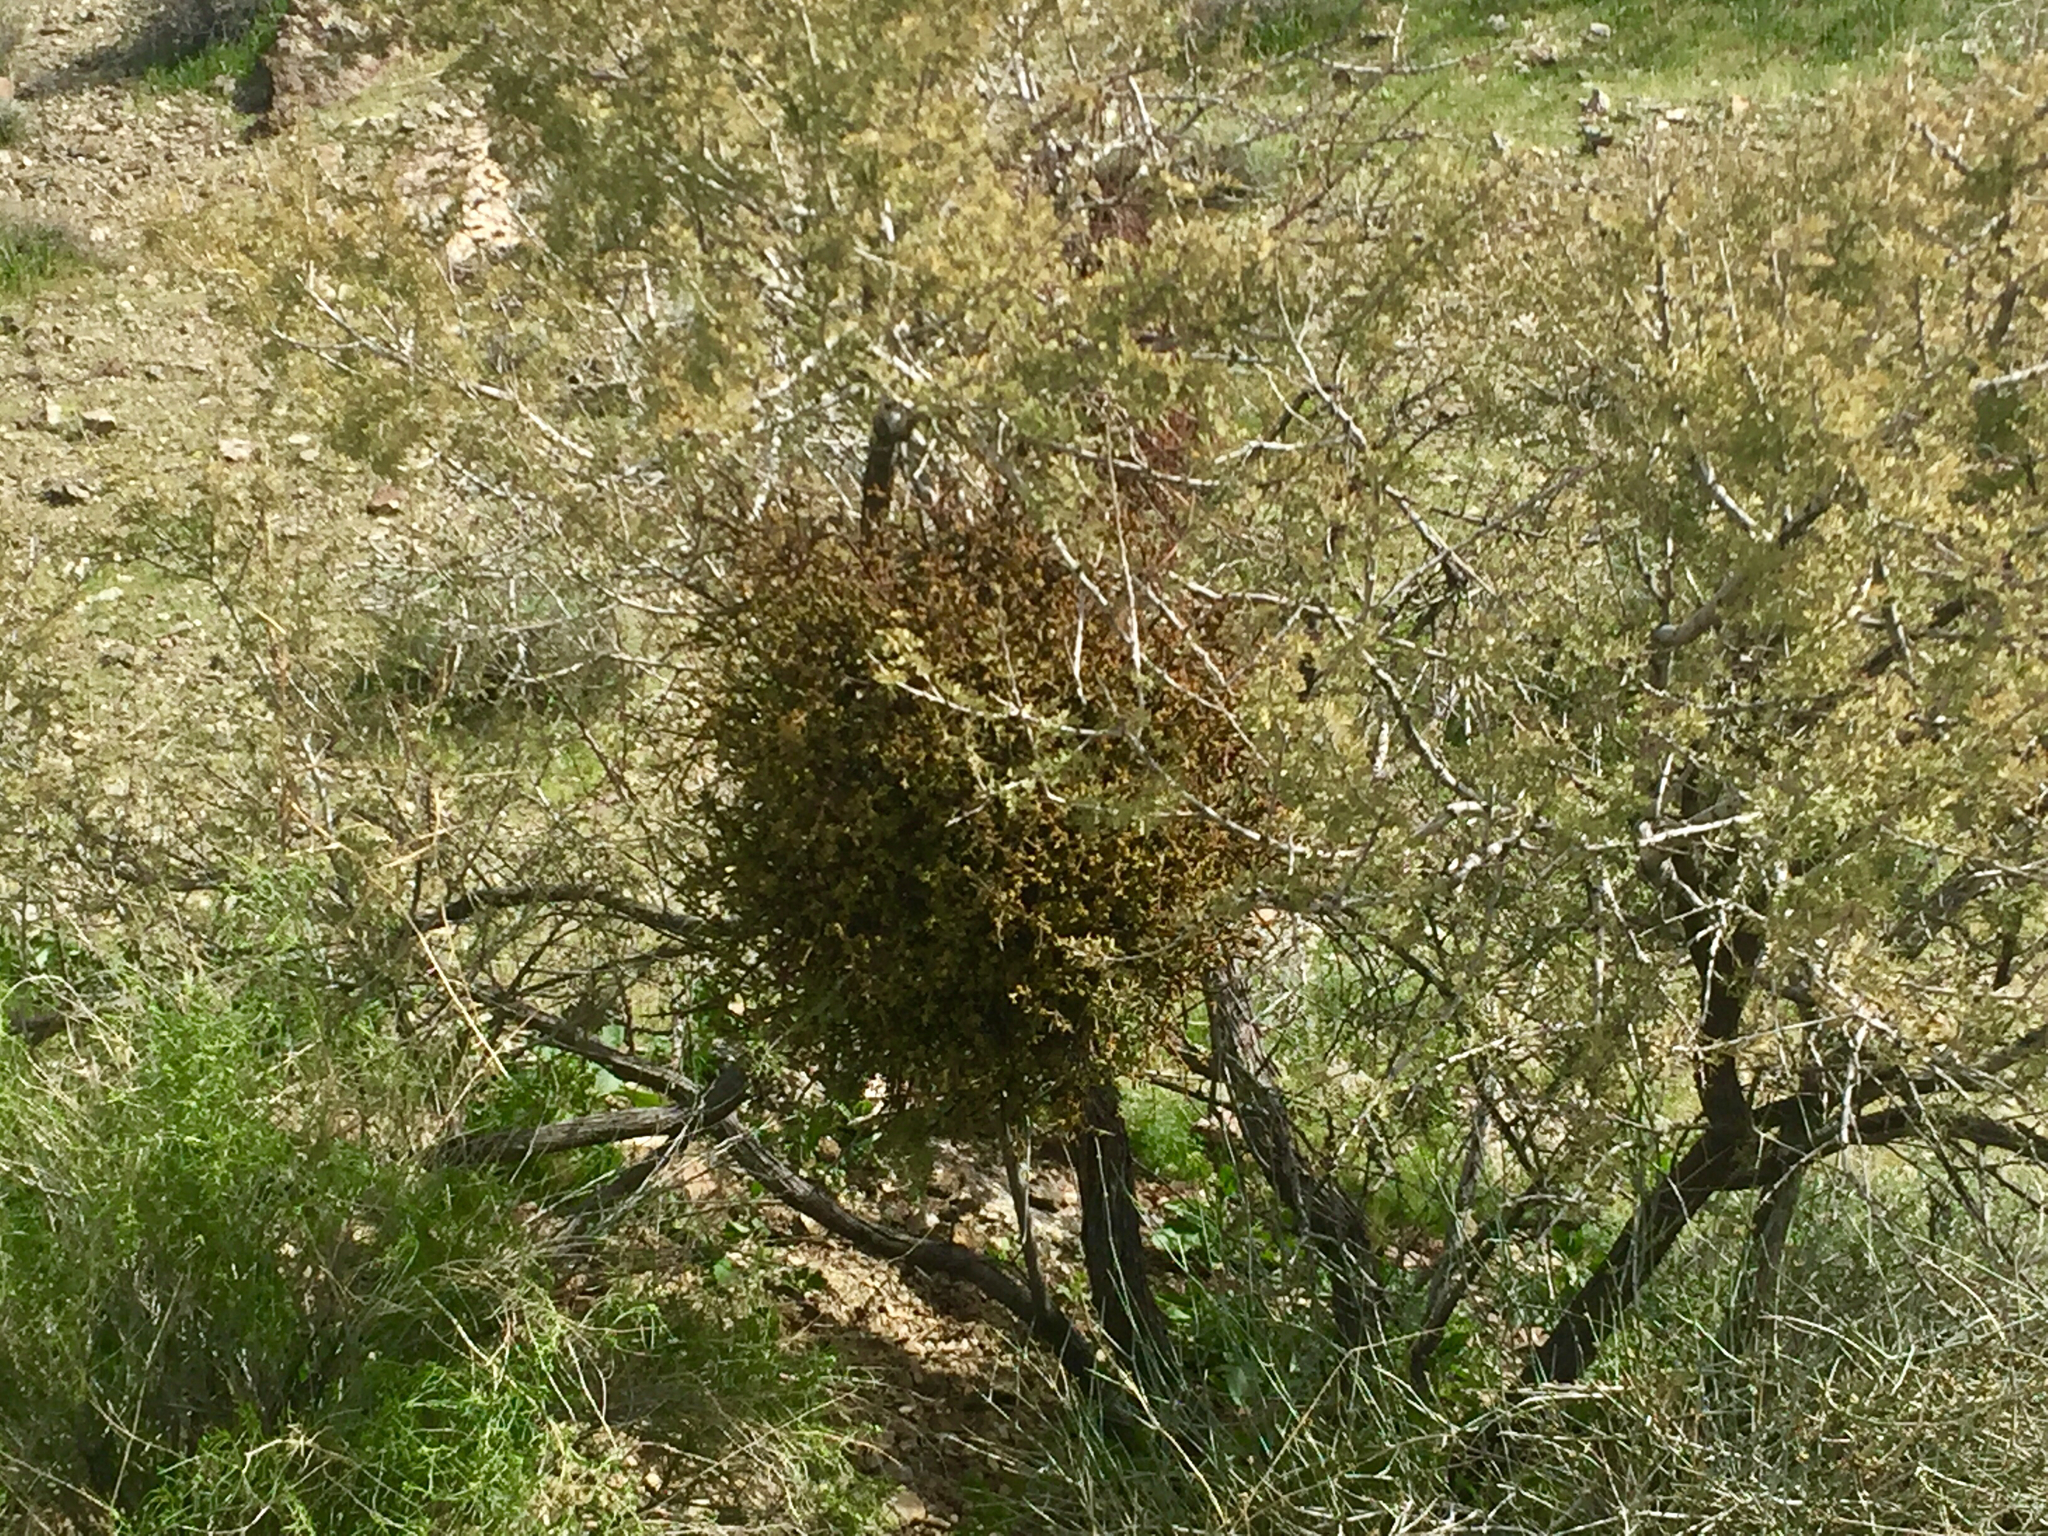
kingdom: Plantae
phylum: Tracheophyta
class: Magnoliopsida
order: Santalales
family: Viscaceae
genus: Phoradendron
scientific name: Phoradendron californicum
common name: Acacia mistletoe
